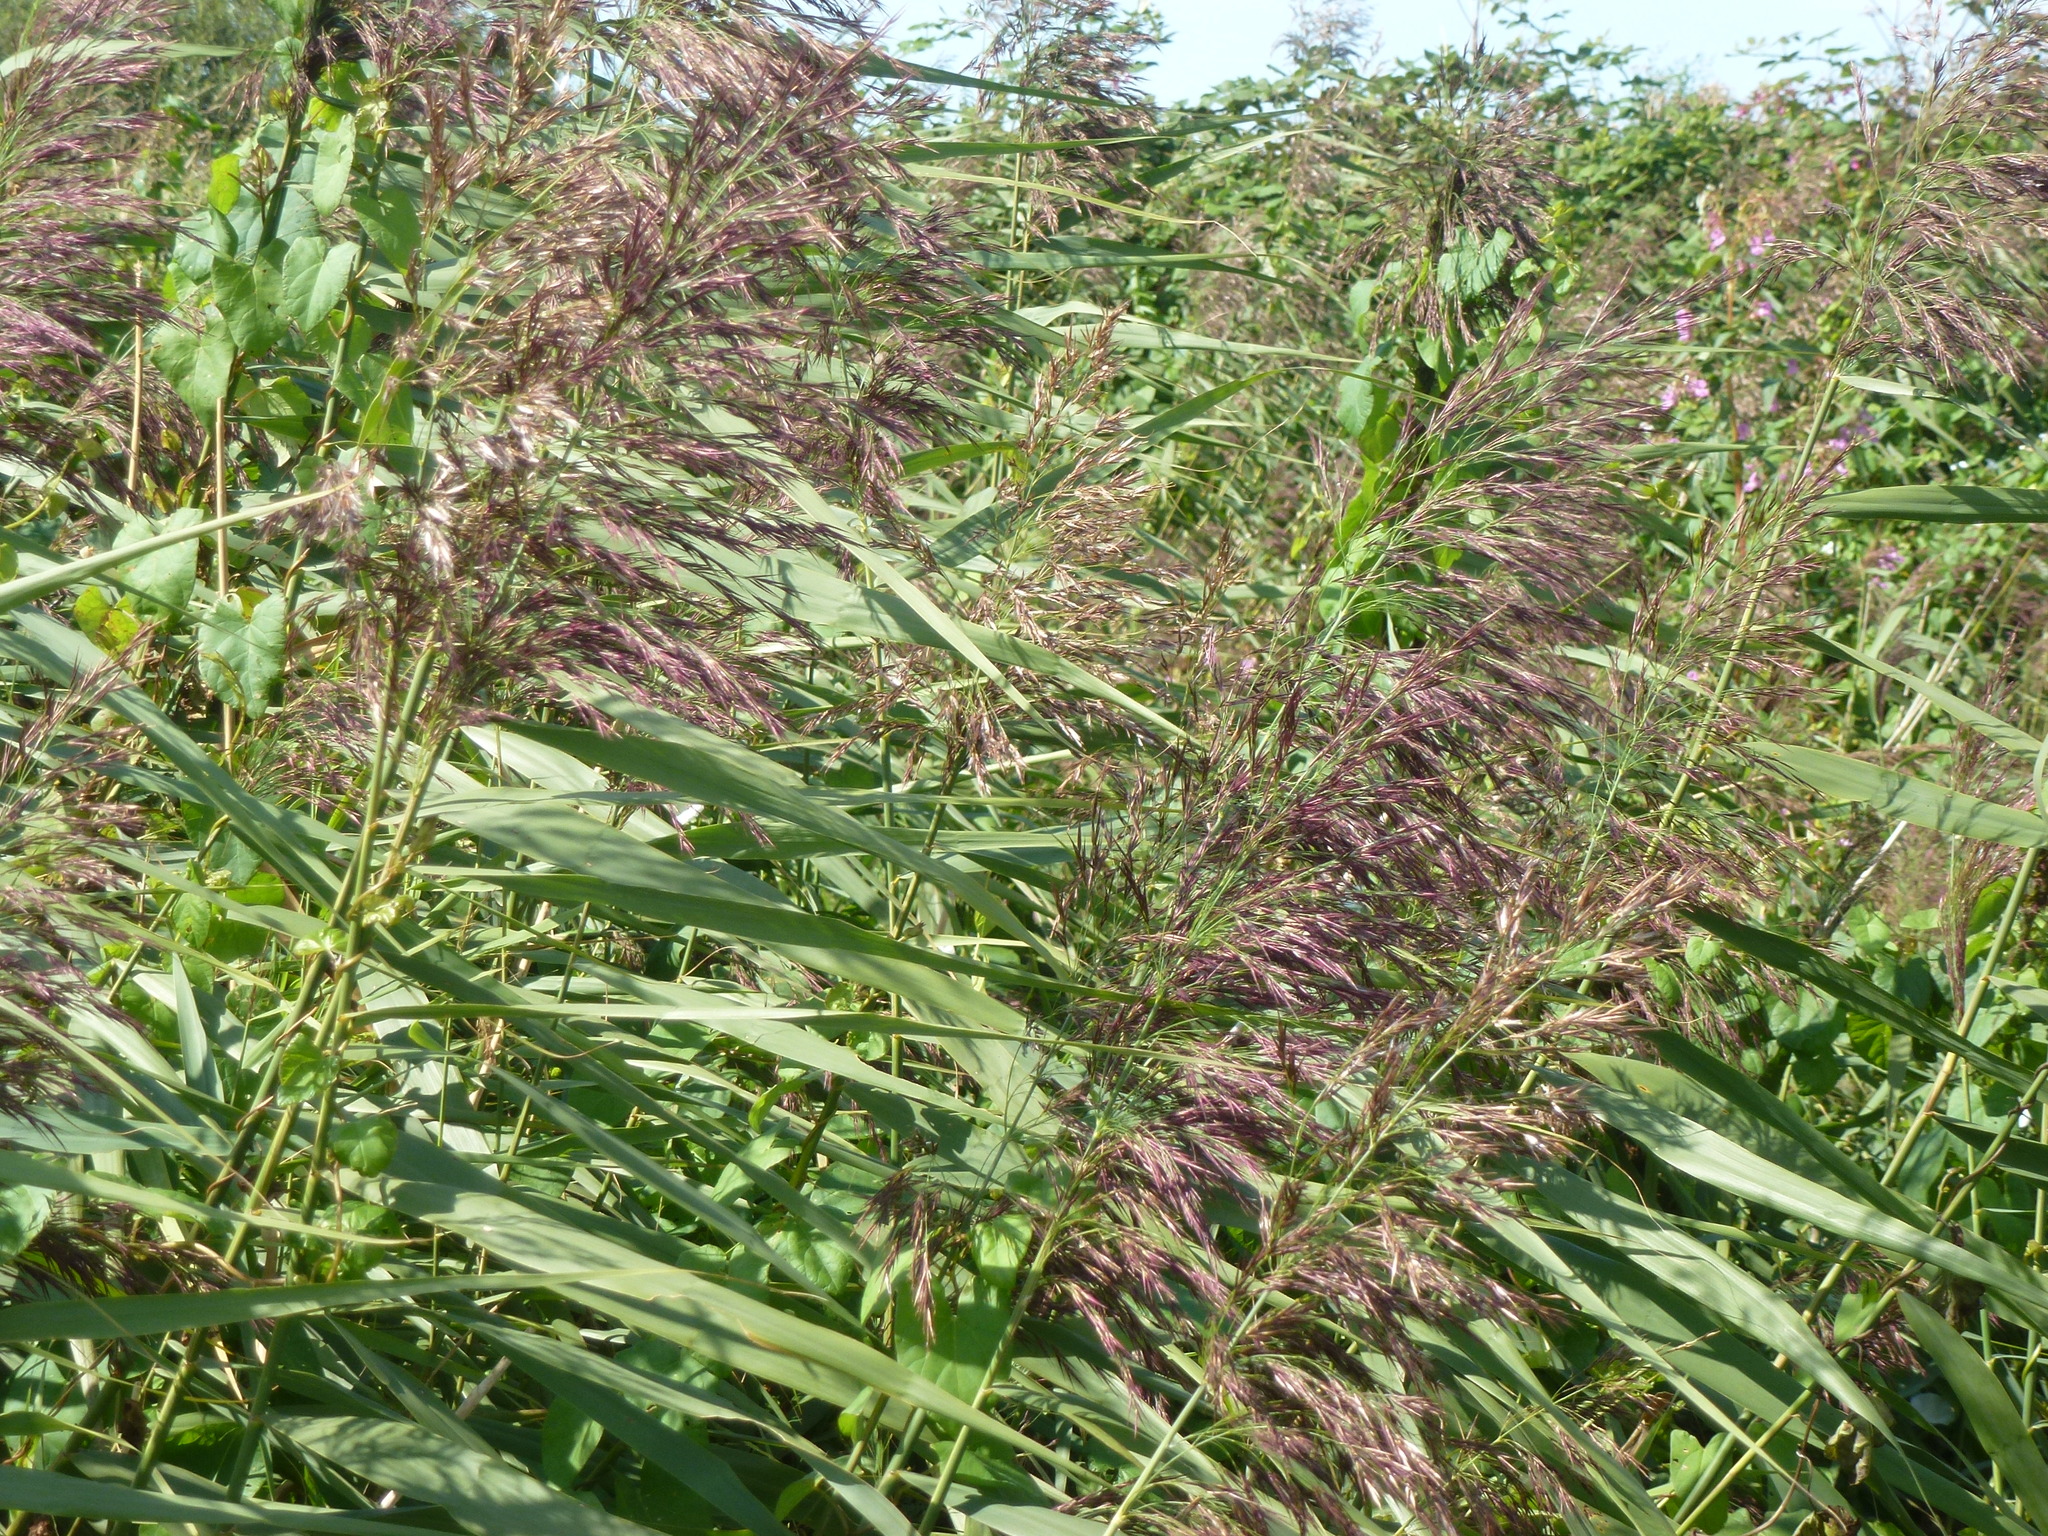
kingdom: Plantae
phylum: Tracheophyta
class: Liliopsida
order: Poales
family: Poaceae
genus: Phragmites
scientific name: Phragmites australis
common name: Common reed
